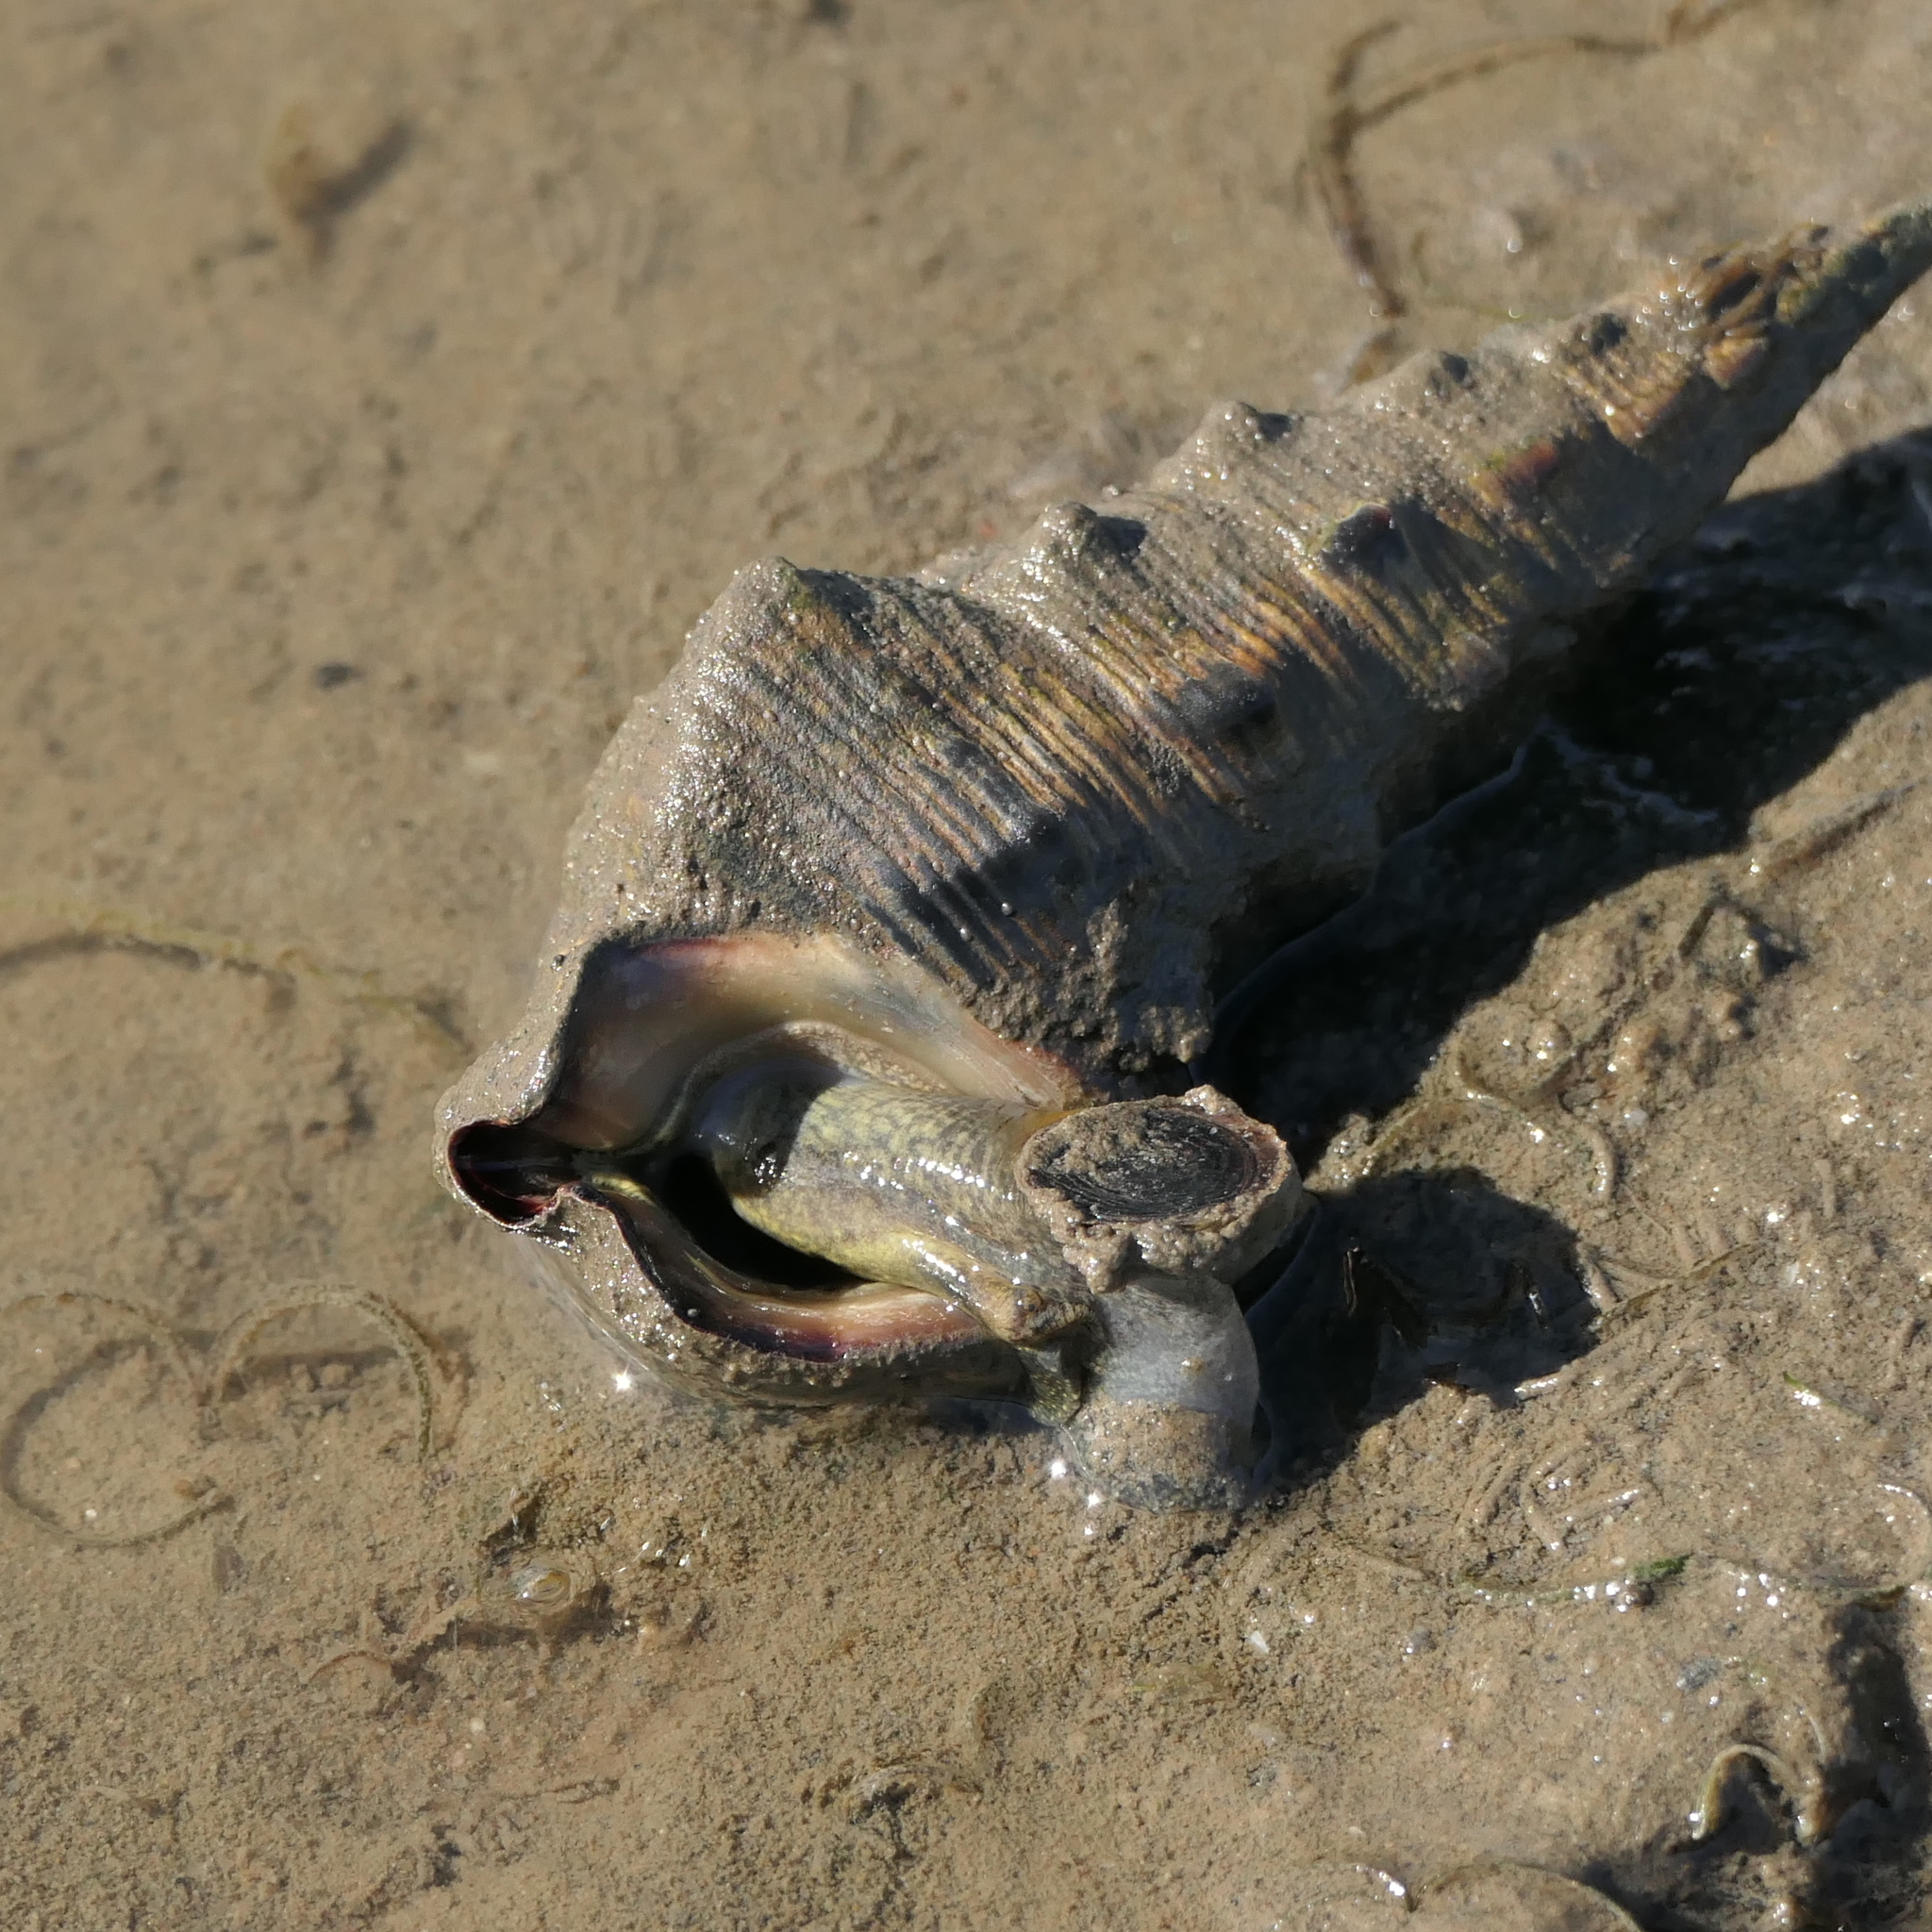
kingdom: Animalia
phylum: Mollusca
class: Gastropoda
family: Batillariidae
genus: Pyrazus
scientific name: Pyrazus ebeninus
